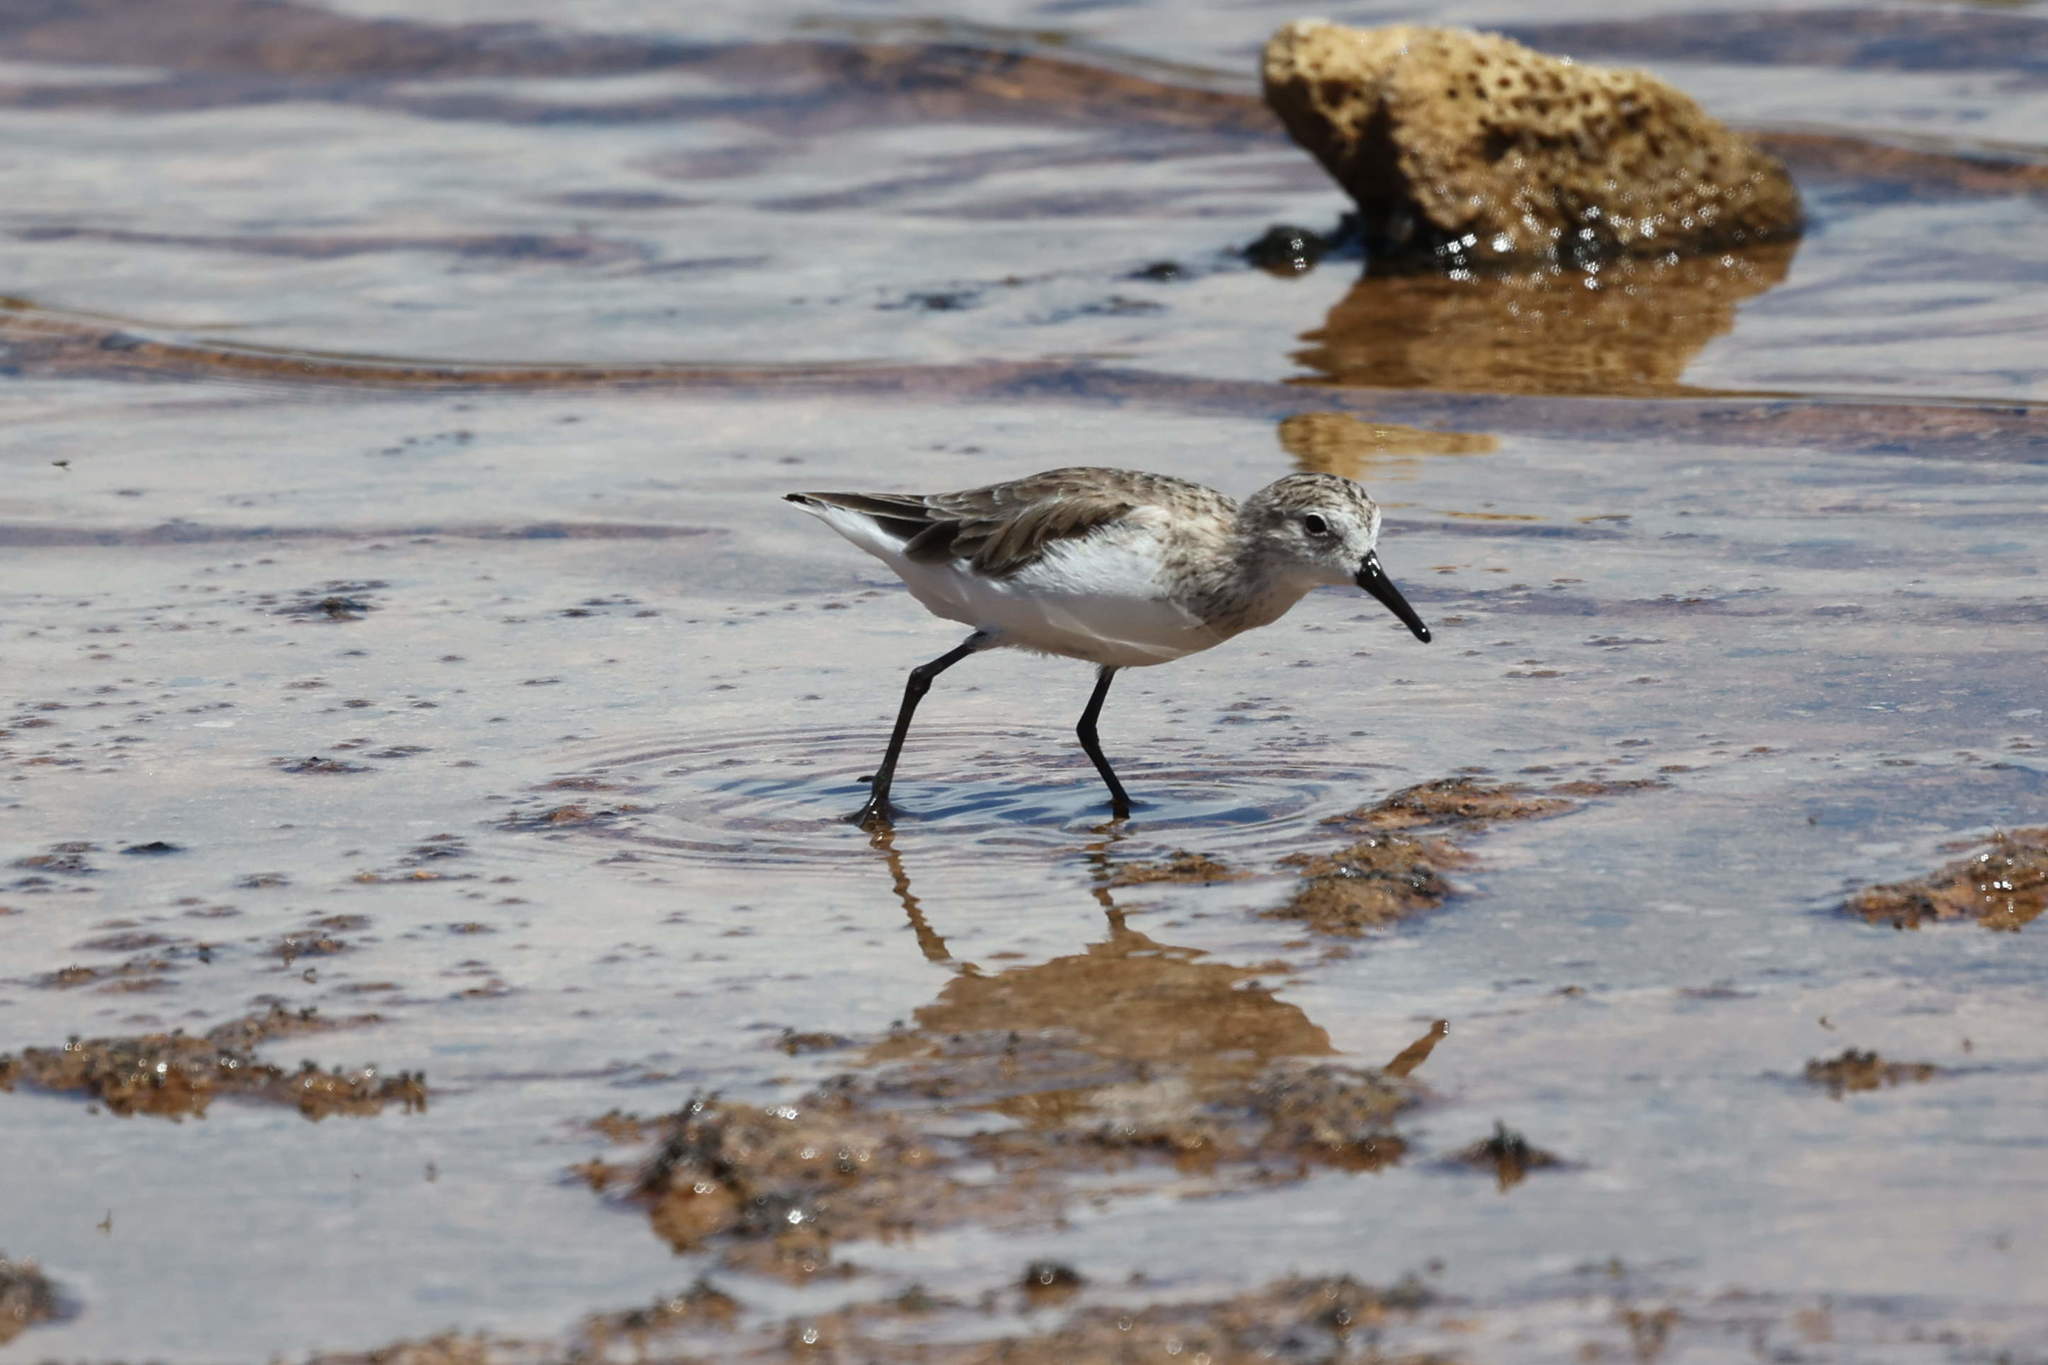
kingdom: Animalia
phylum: Chordata
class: Aves
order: Charadriiformes
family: Scolopacidae
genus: Calidris
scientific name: Calidris pusilla
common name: Semipalmated sandpiper
